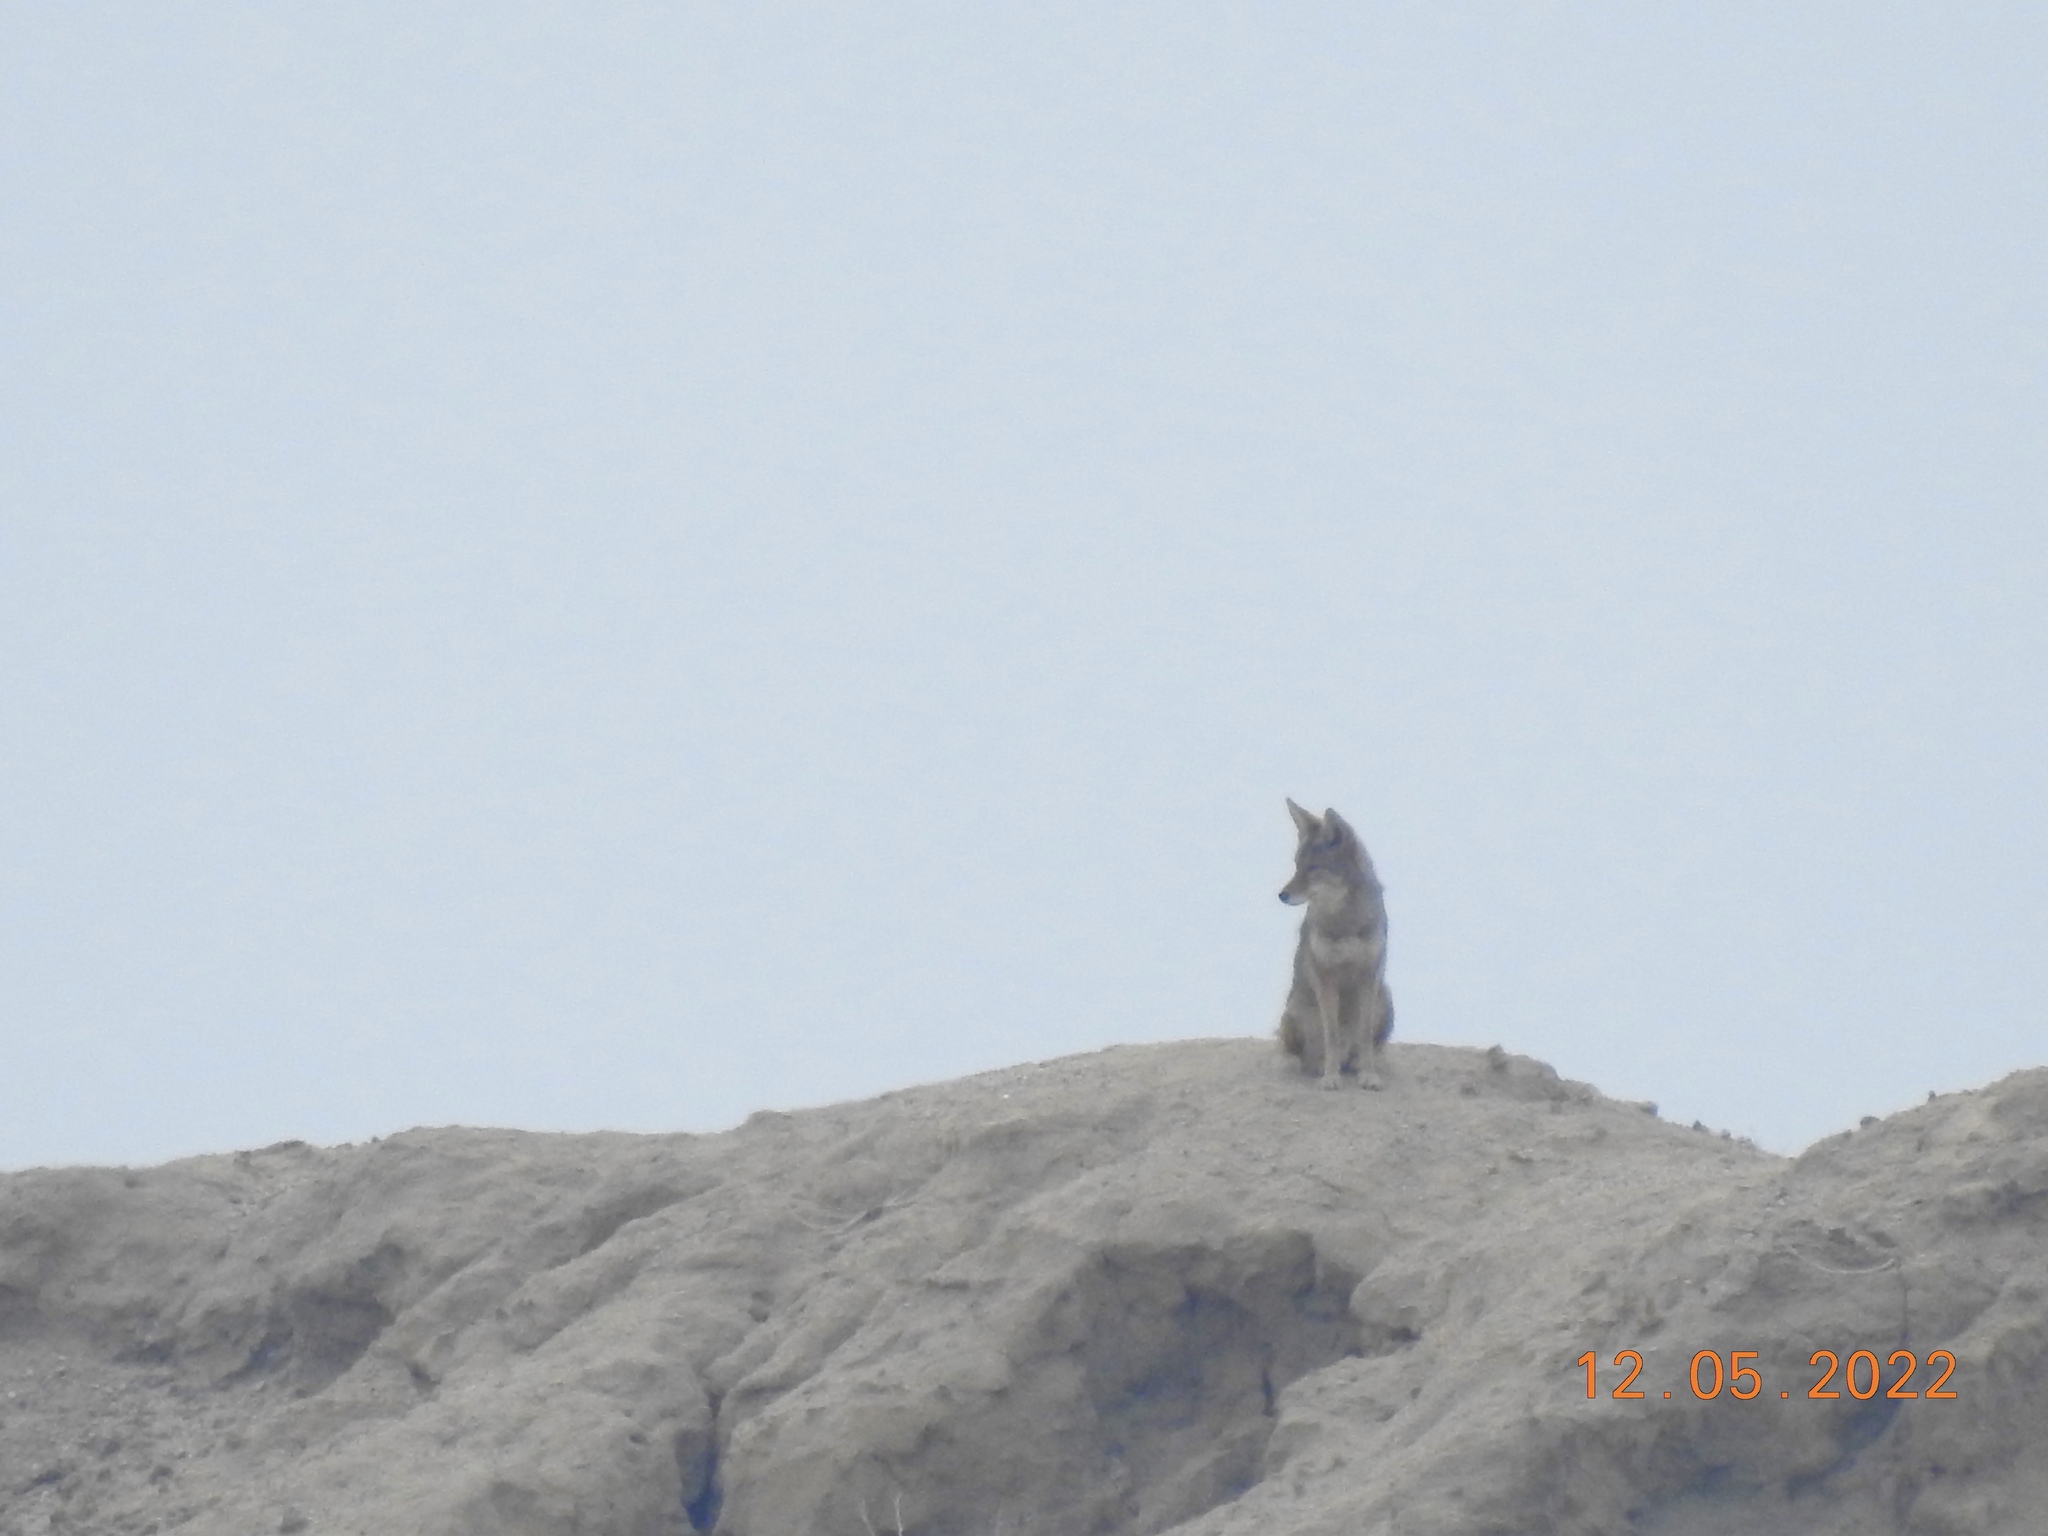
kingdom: Animalia
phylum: Chordata
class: Mammalia
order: Carnivora
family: Canidae
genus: Canis
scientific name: Canis latrans
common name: Coyote
